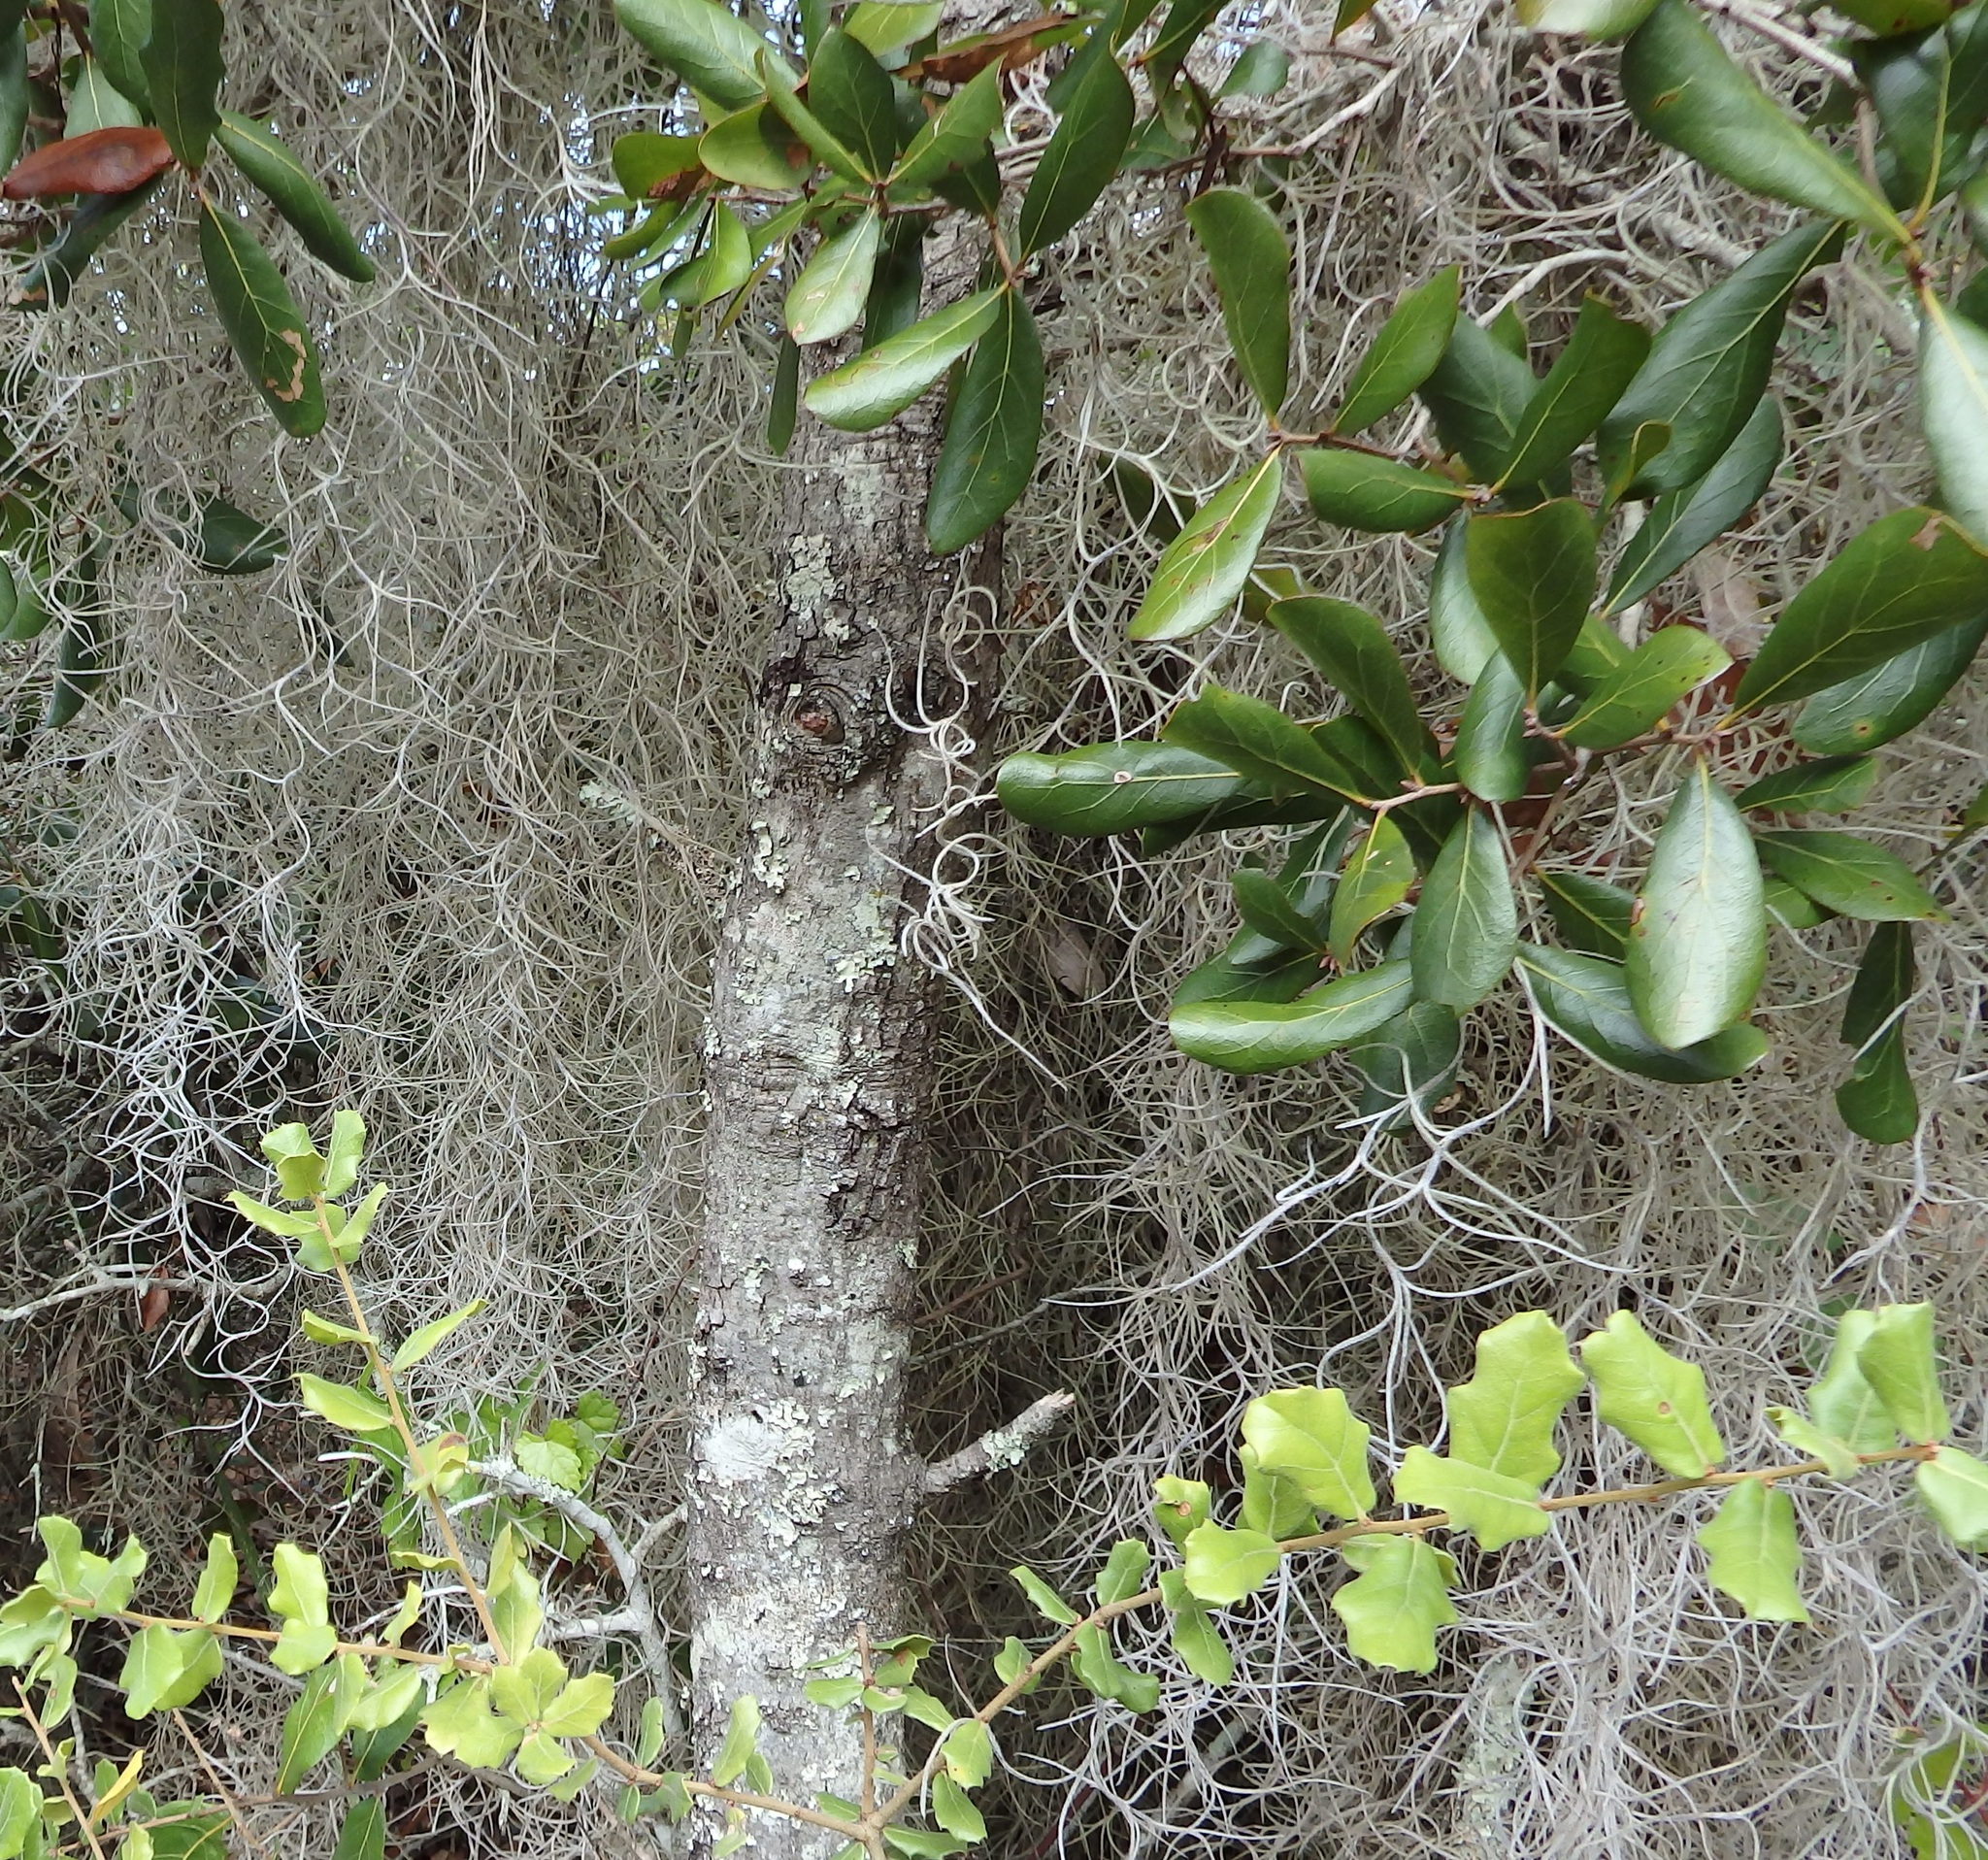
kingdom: Plantae
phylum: Tracheophyta
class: Liliopsida
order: Poales
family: Bromeliaceae
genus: Tillandsia
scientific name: Tillandsia usneoides
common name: Spanish moss
